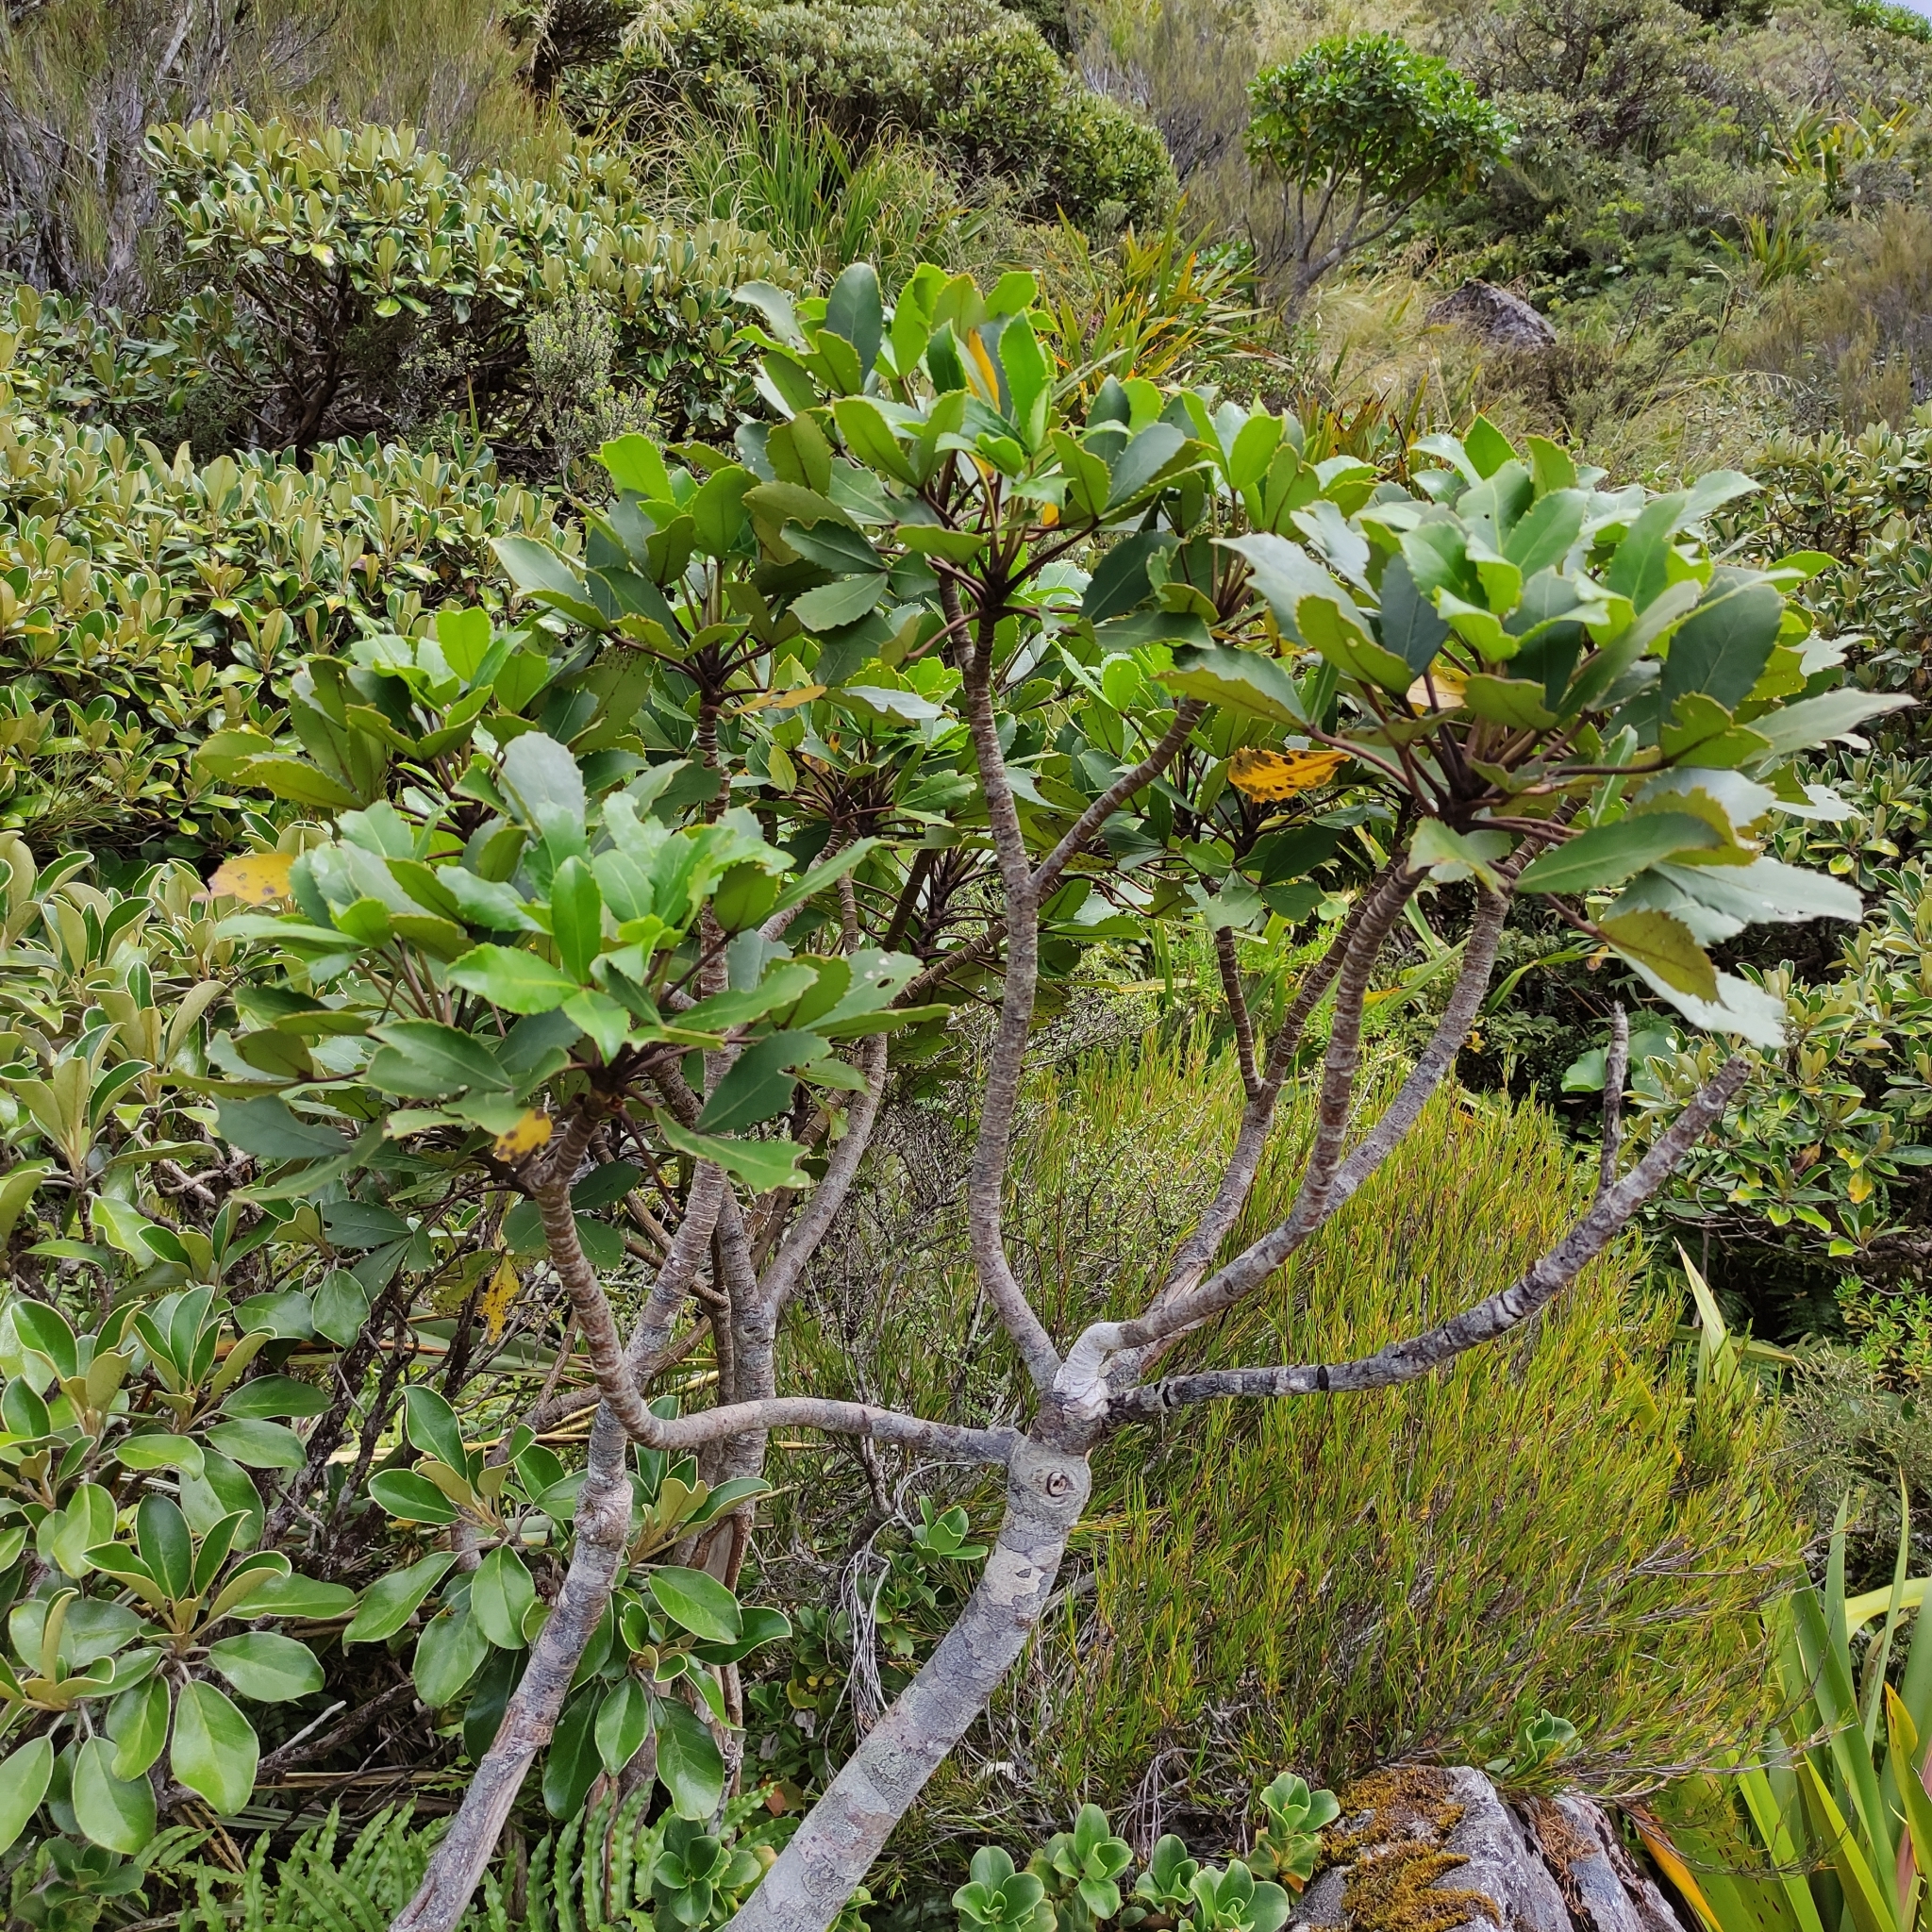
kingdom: Plantae
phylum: Tracheophyta
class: Magnoliopsida
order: Apiales
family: Araliaceae
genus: Neopanax
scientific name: Neopanax colensoi
